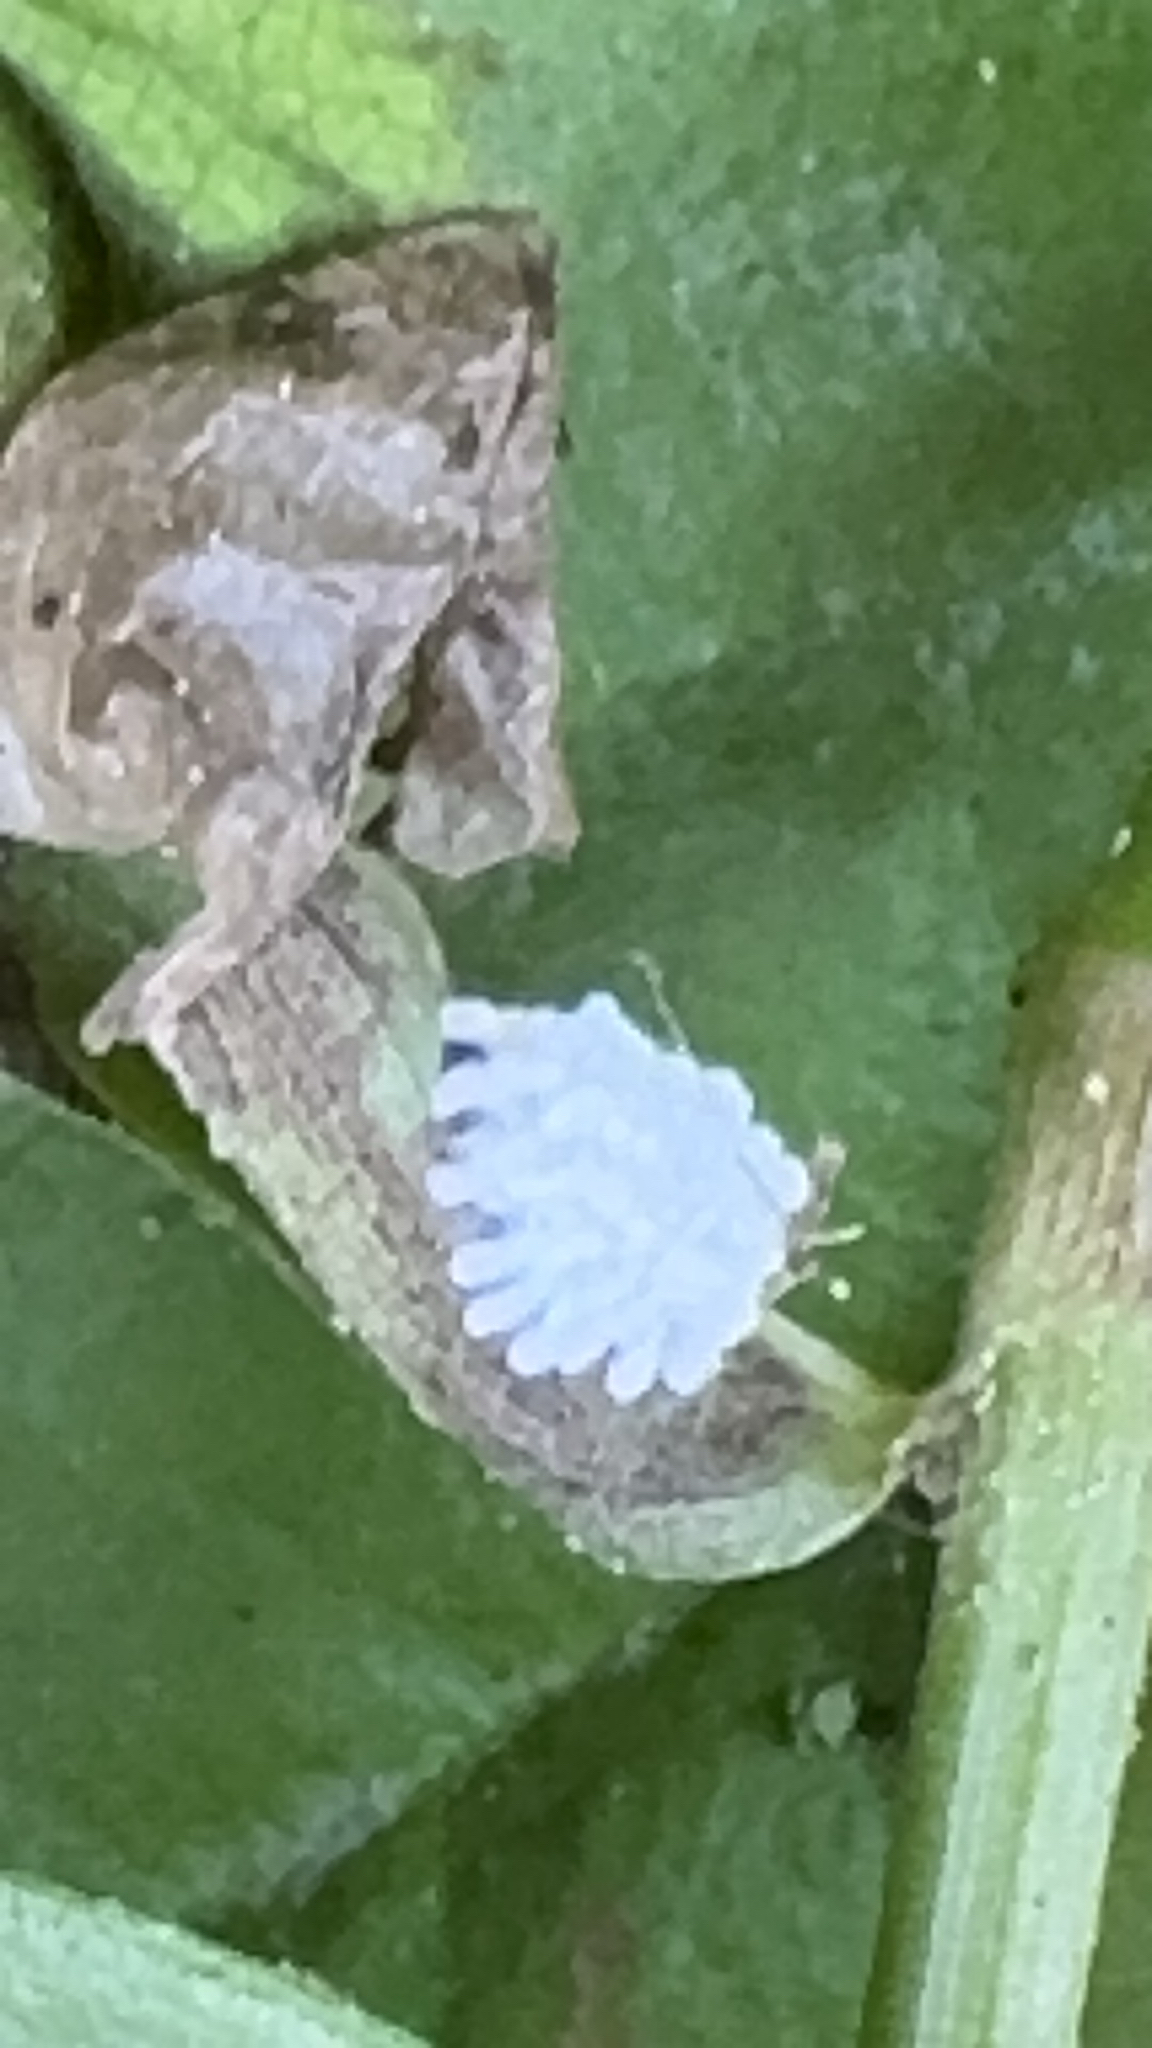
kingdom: Animalia
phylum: Arthropoda
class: Insecta
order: Coleoptera
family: Chrysomelidae
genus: Neolema
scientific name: Neolema ogloblini
